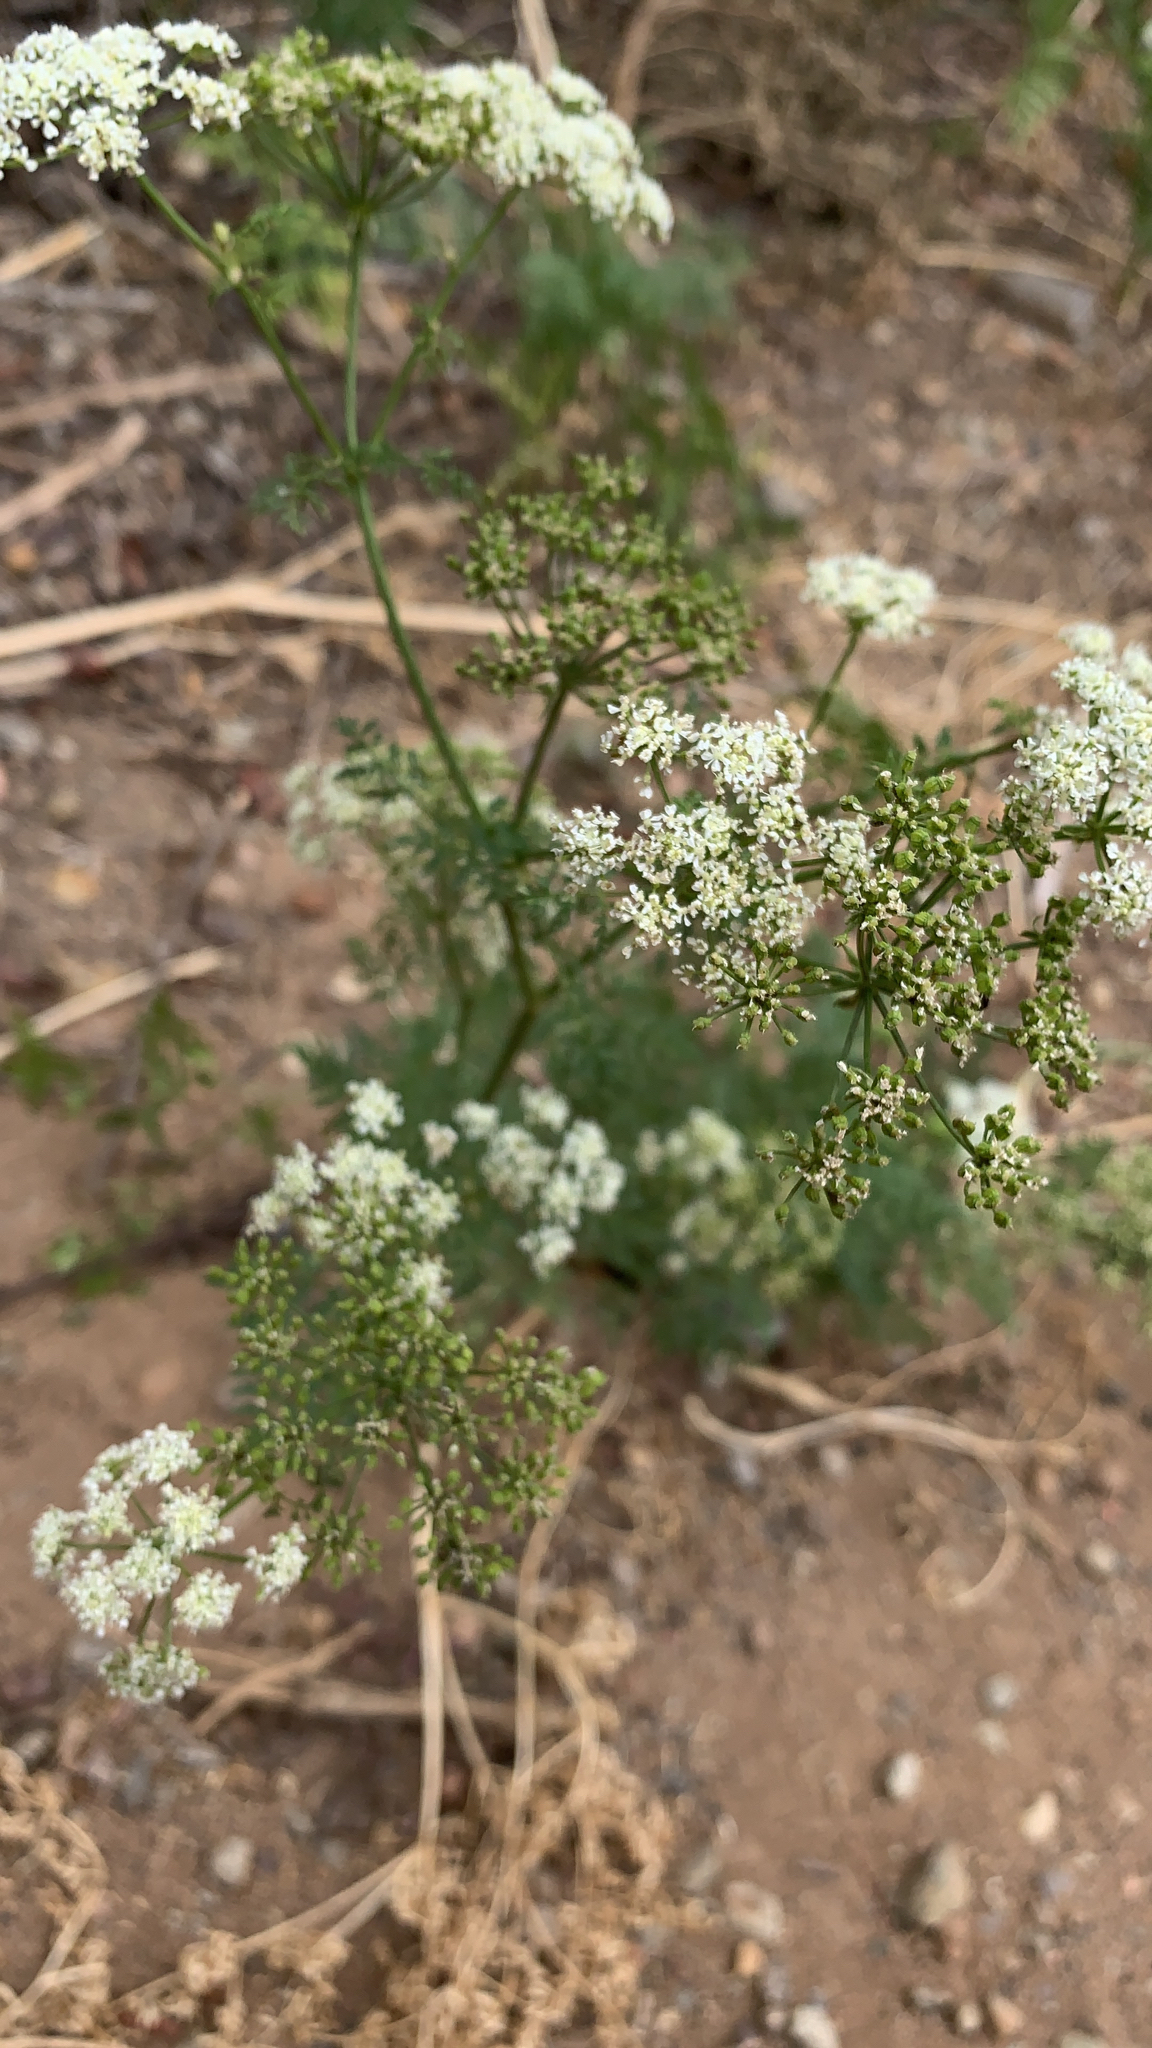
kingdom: Plantae
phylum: Tracheophyta
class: Magnoliopsida
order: Apiales
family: Apiaceae
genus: Conium
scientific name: Conium maculatum
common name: Hemlock
